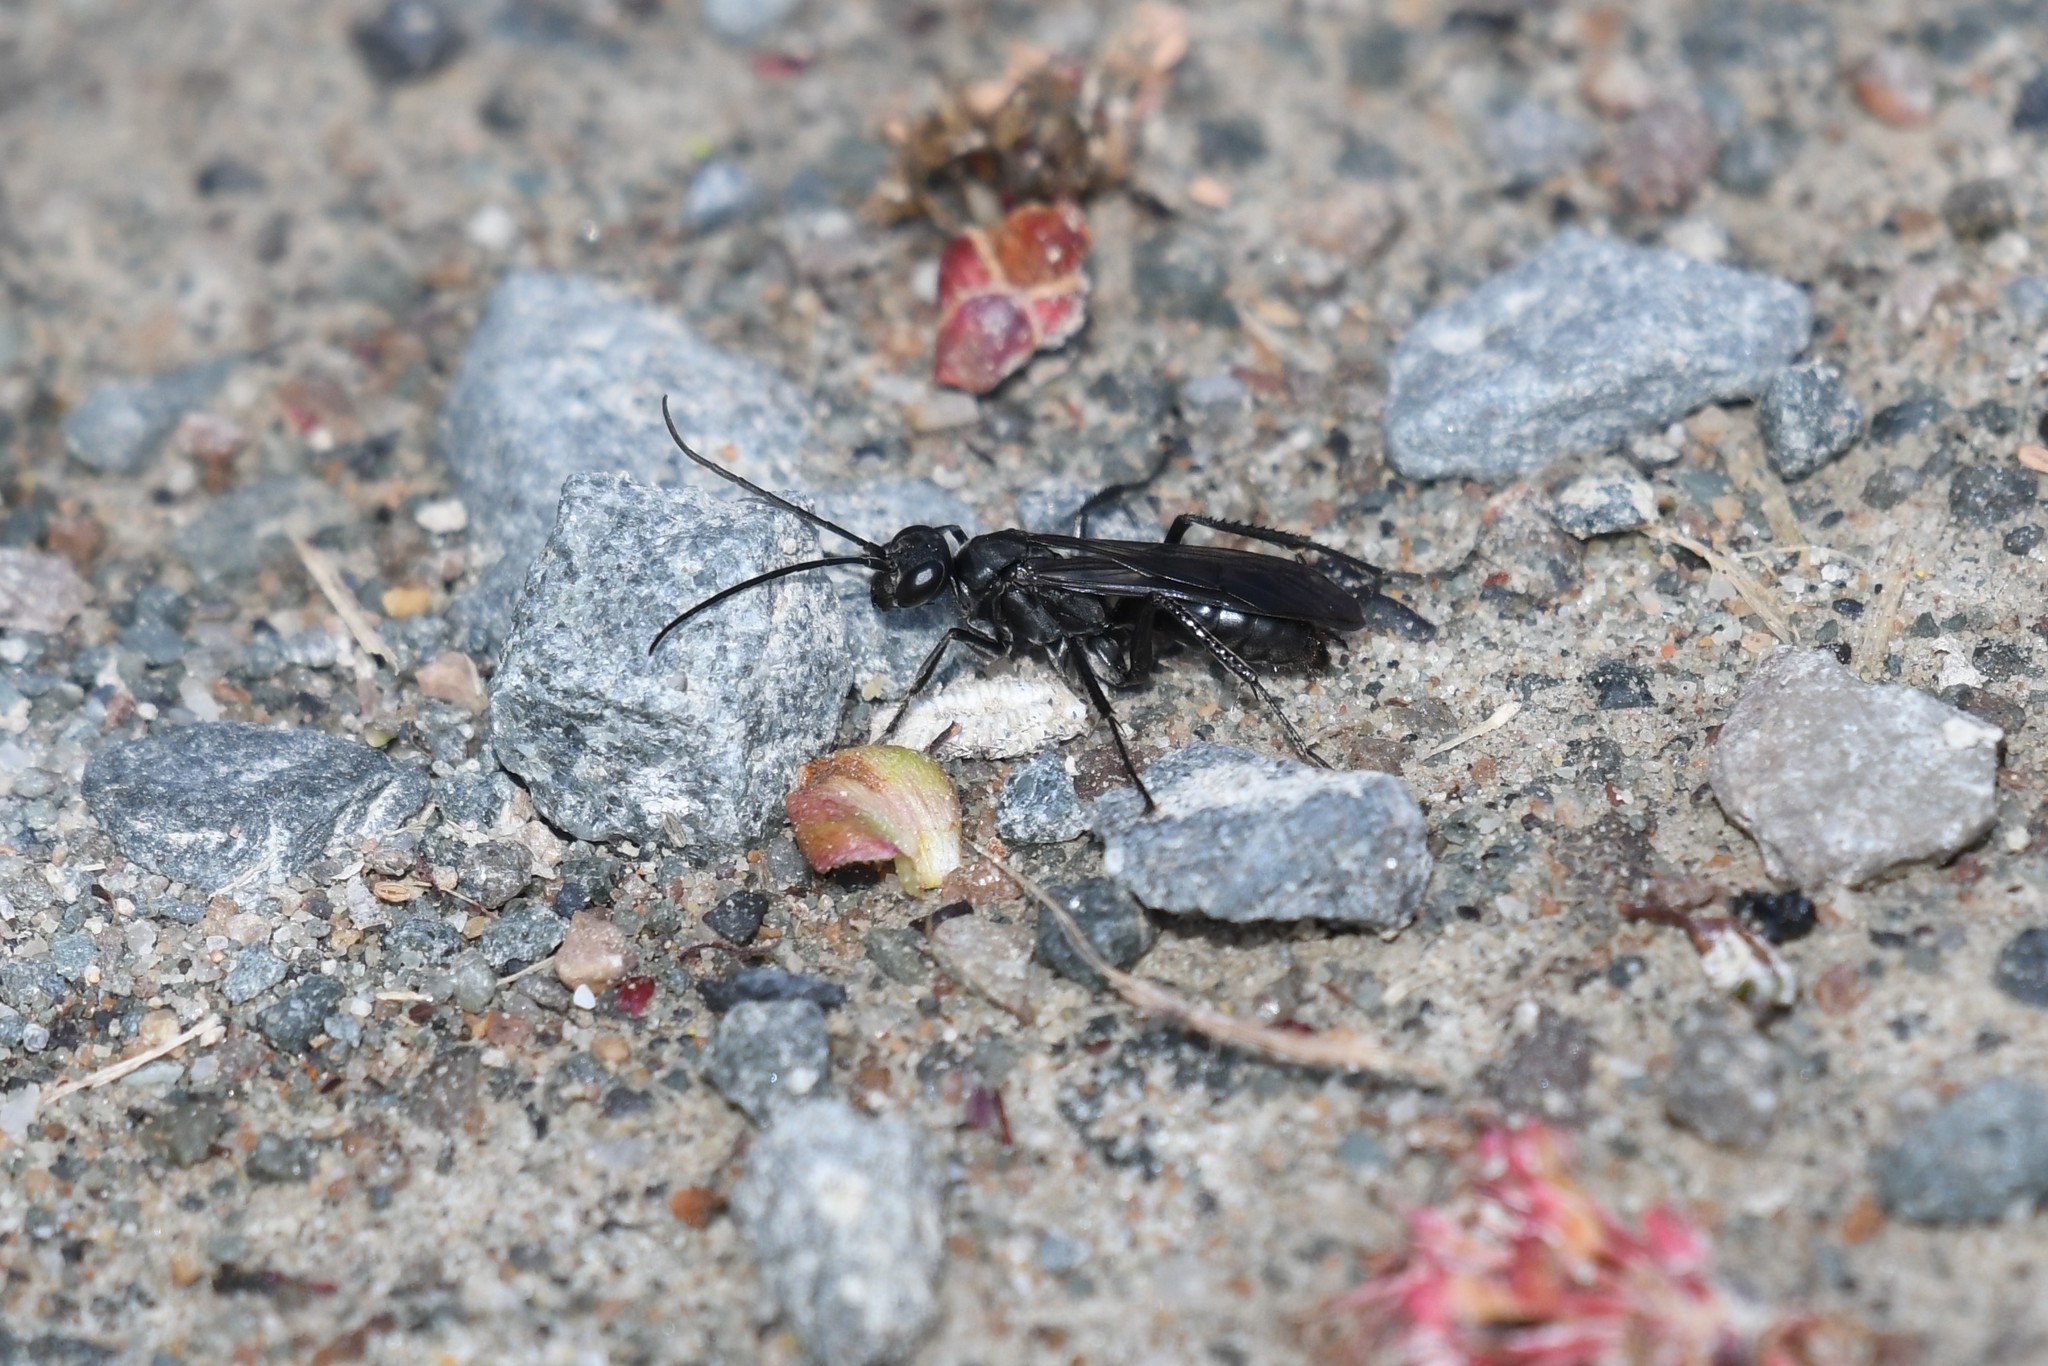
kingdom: Animalia
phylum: Arthropoda
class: Insecta
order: Hymenoptera
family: Pompilidae
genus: Priocnemis
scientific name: Priocnemis minorata
